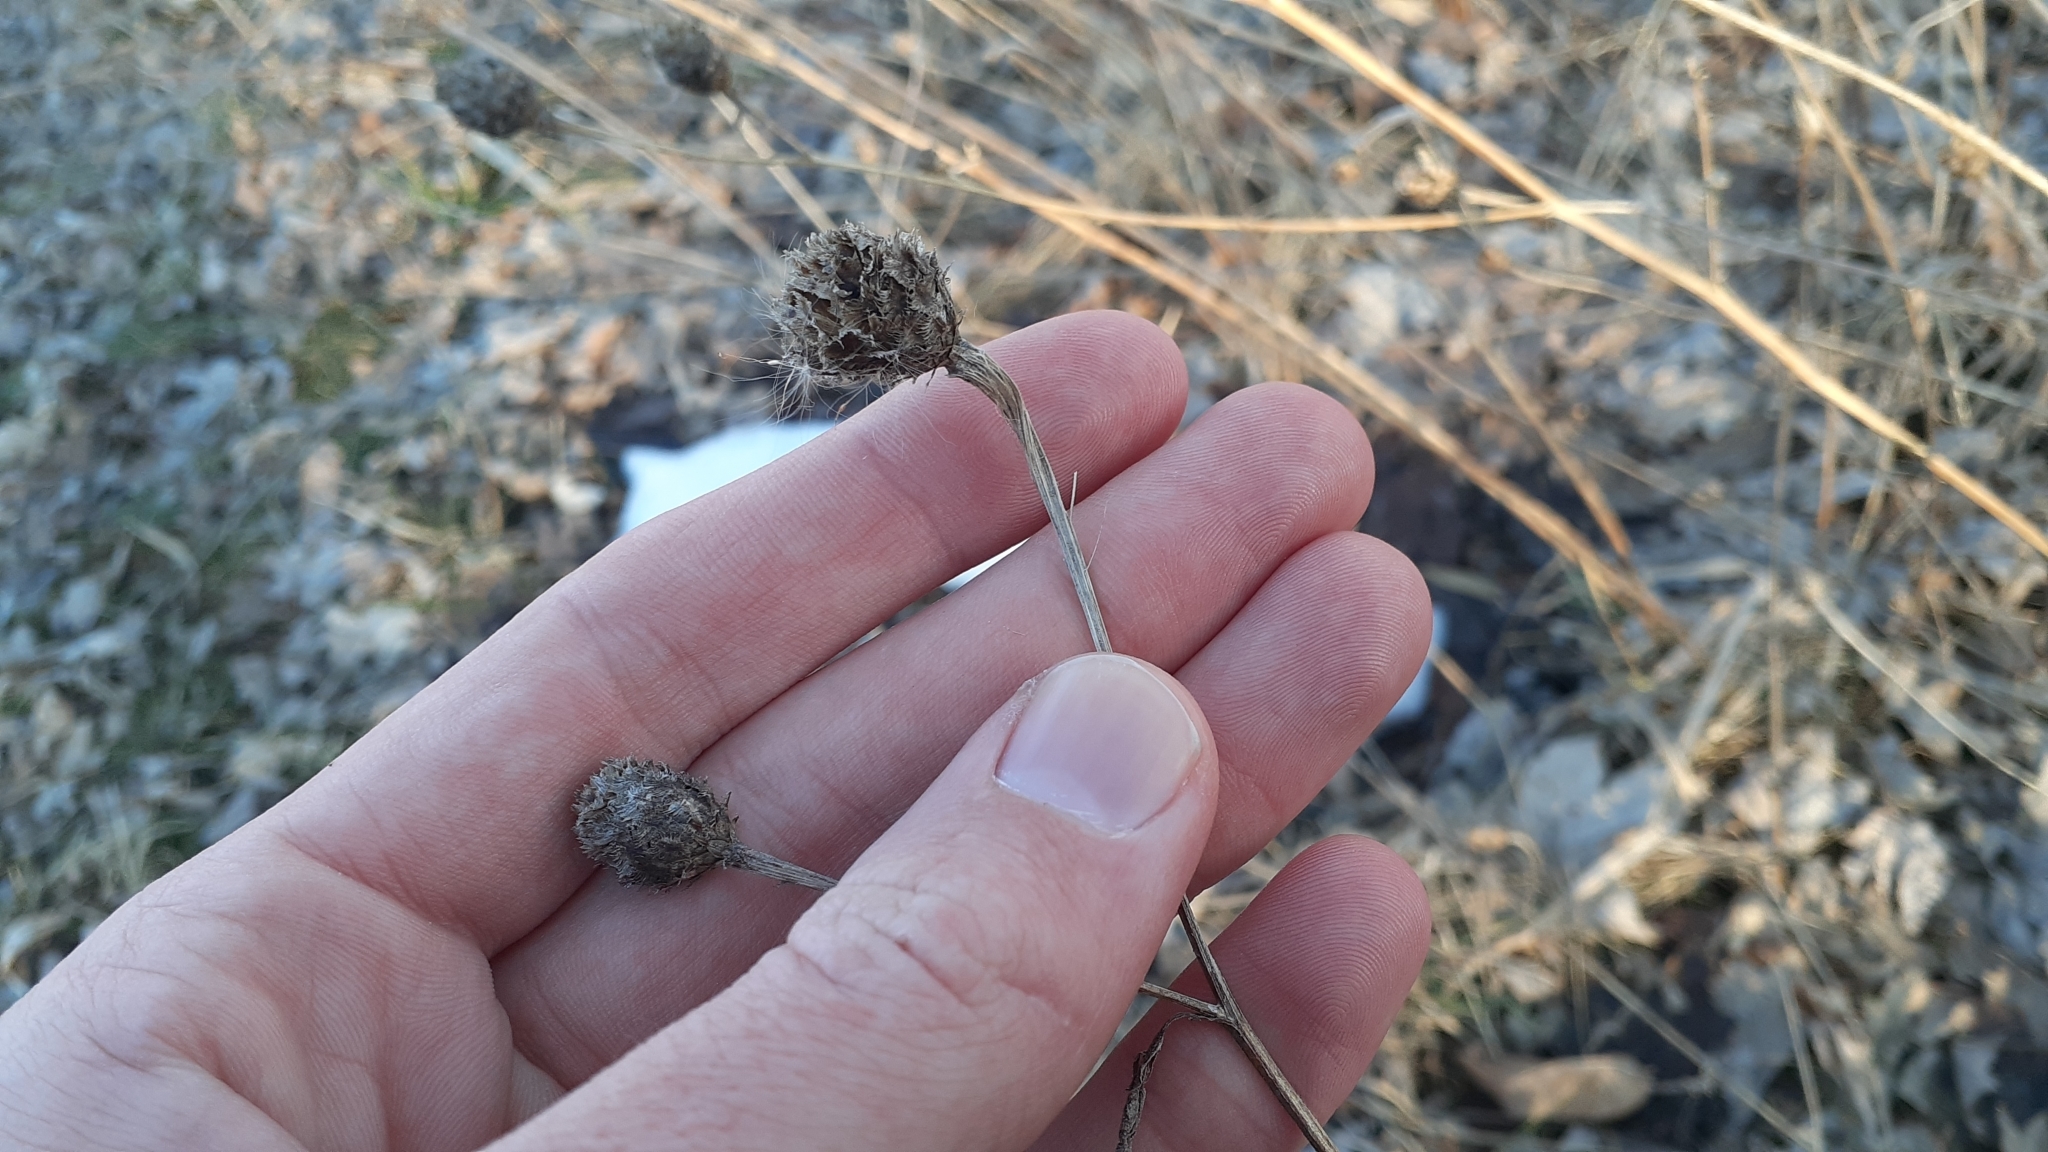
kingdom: Plantae
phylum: Tracheophyta
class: Magnoliopsida
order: Asterales
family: Asteraceae
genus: Centaurea
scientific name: Centaurea moncktonii
